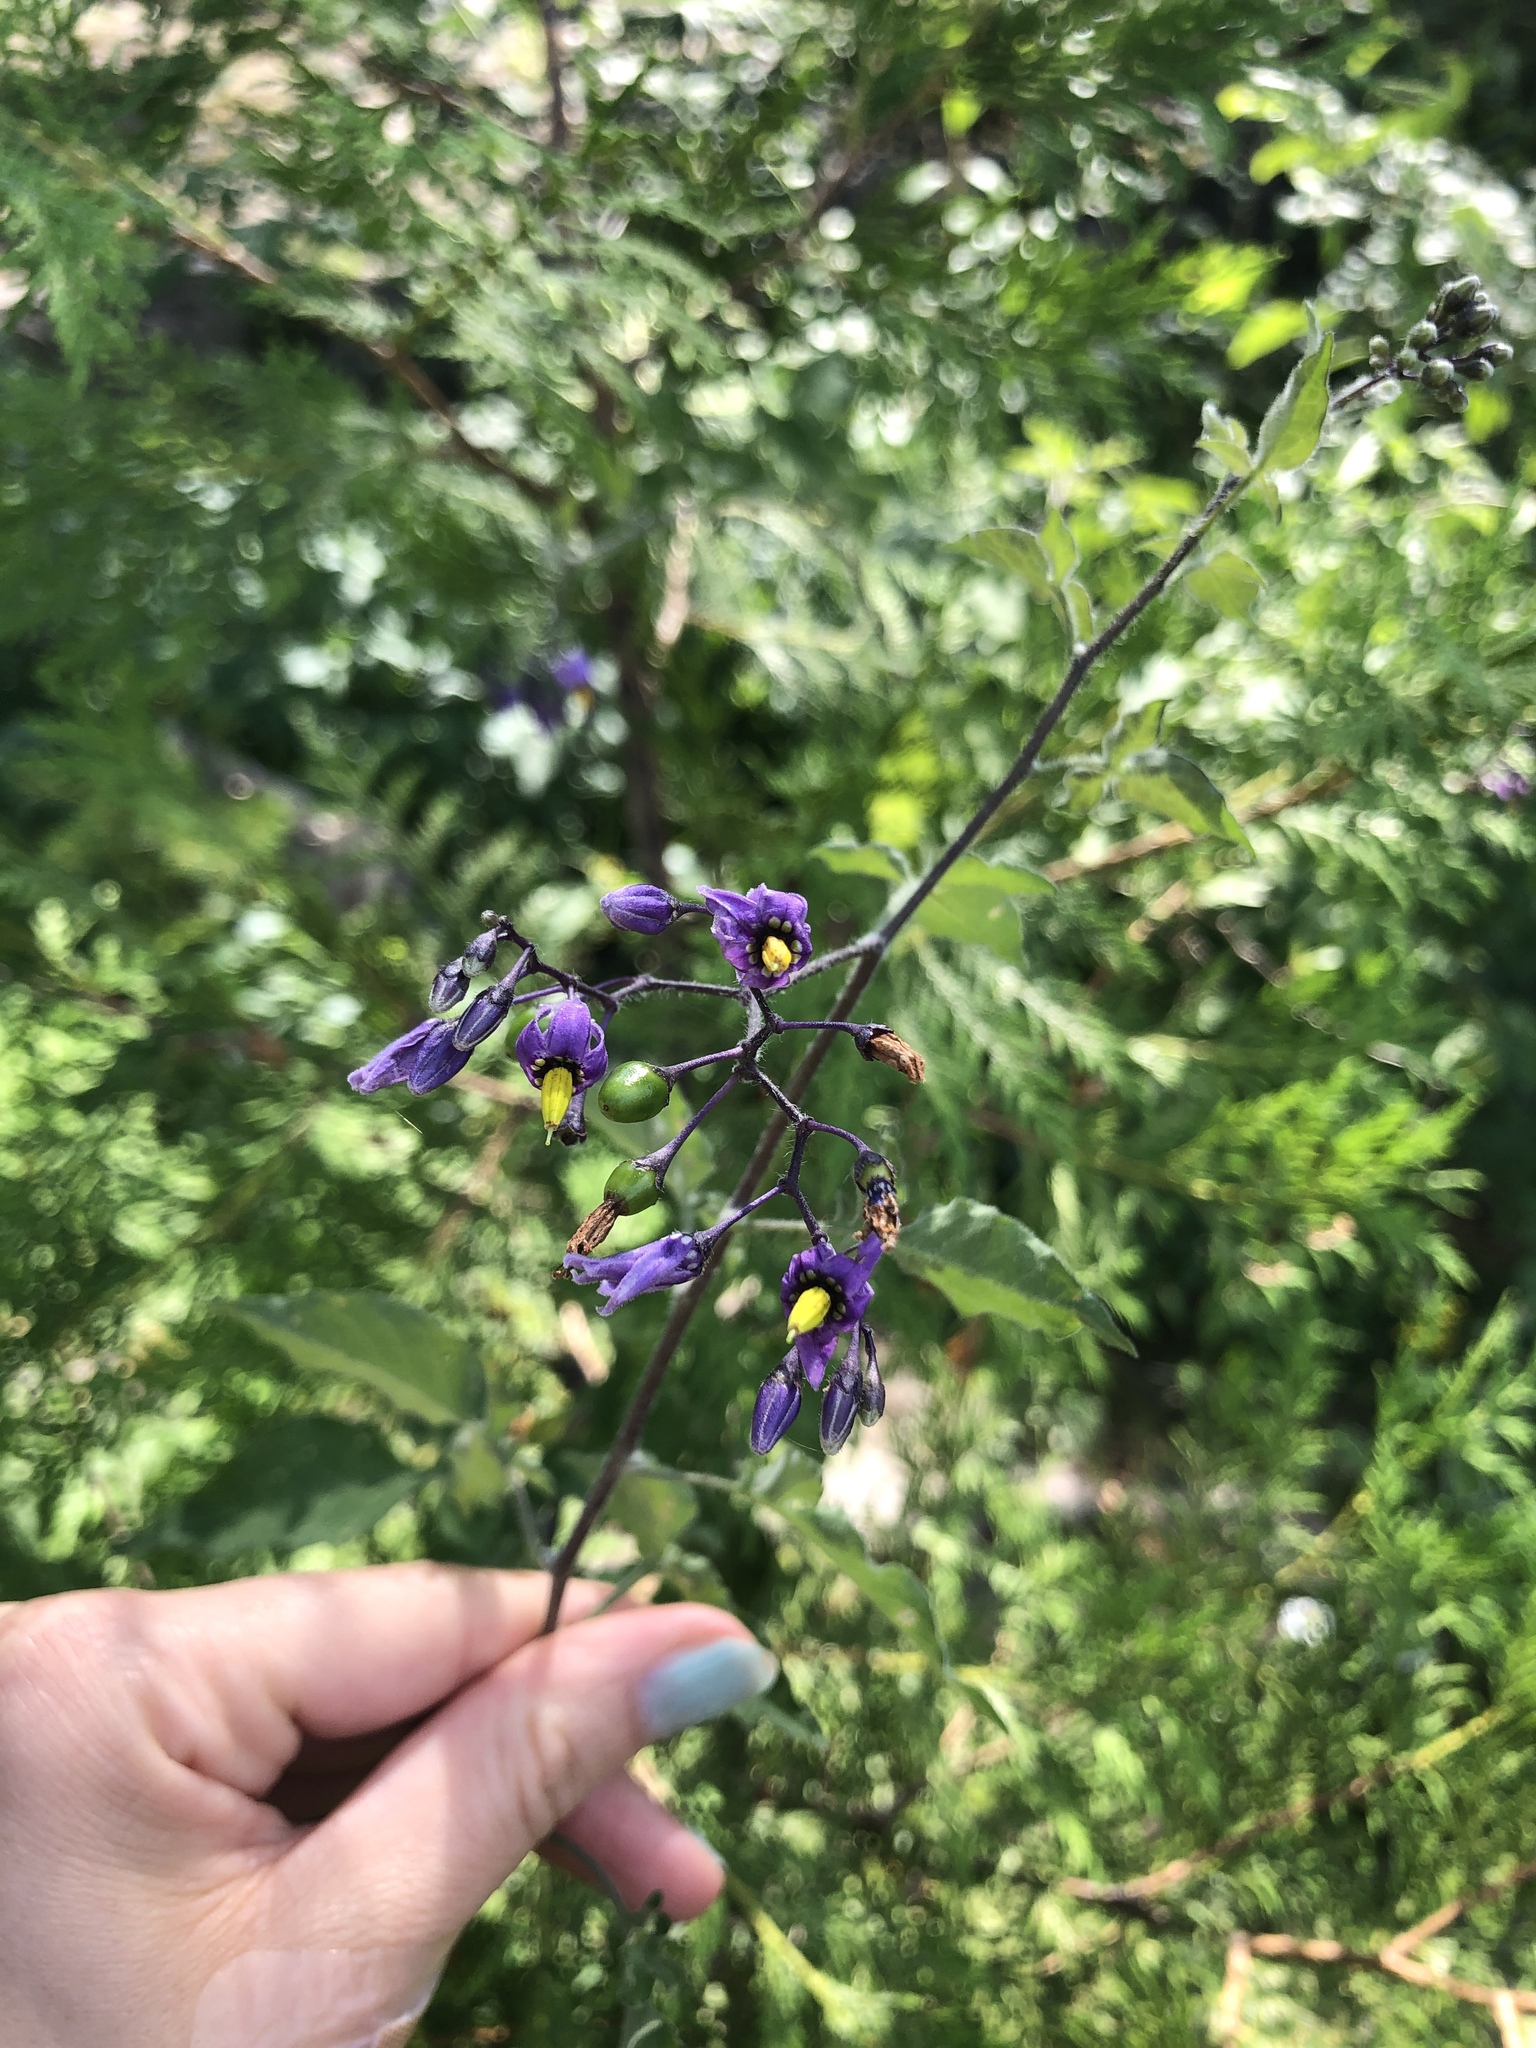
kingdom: Plantae
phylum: Tracheophyta
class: Magnoliopsida
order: Solanales
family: Solanaceae
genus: Solanum
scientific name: Solanum dulcamara
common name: Climbing nightshade
